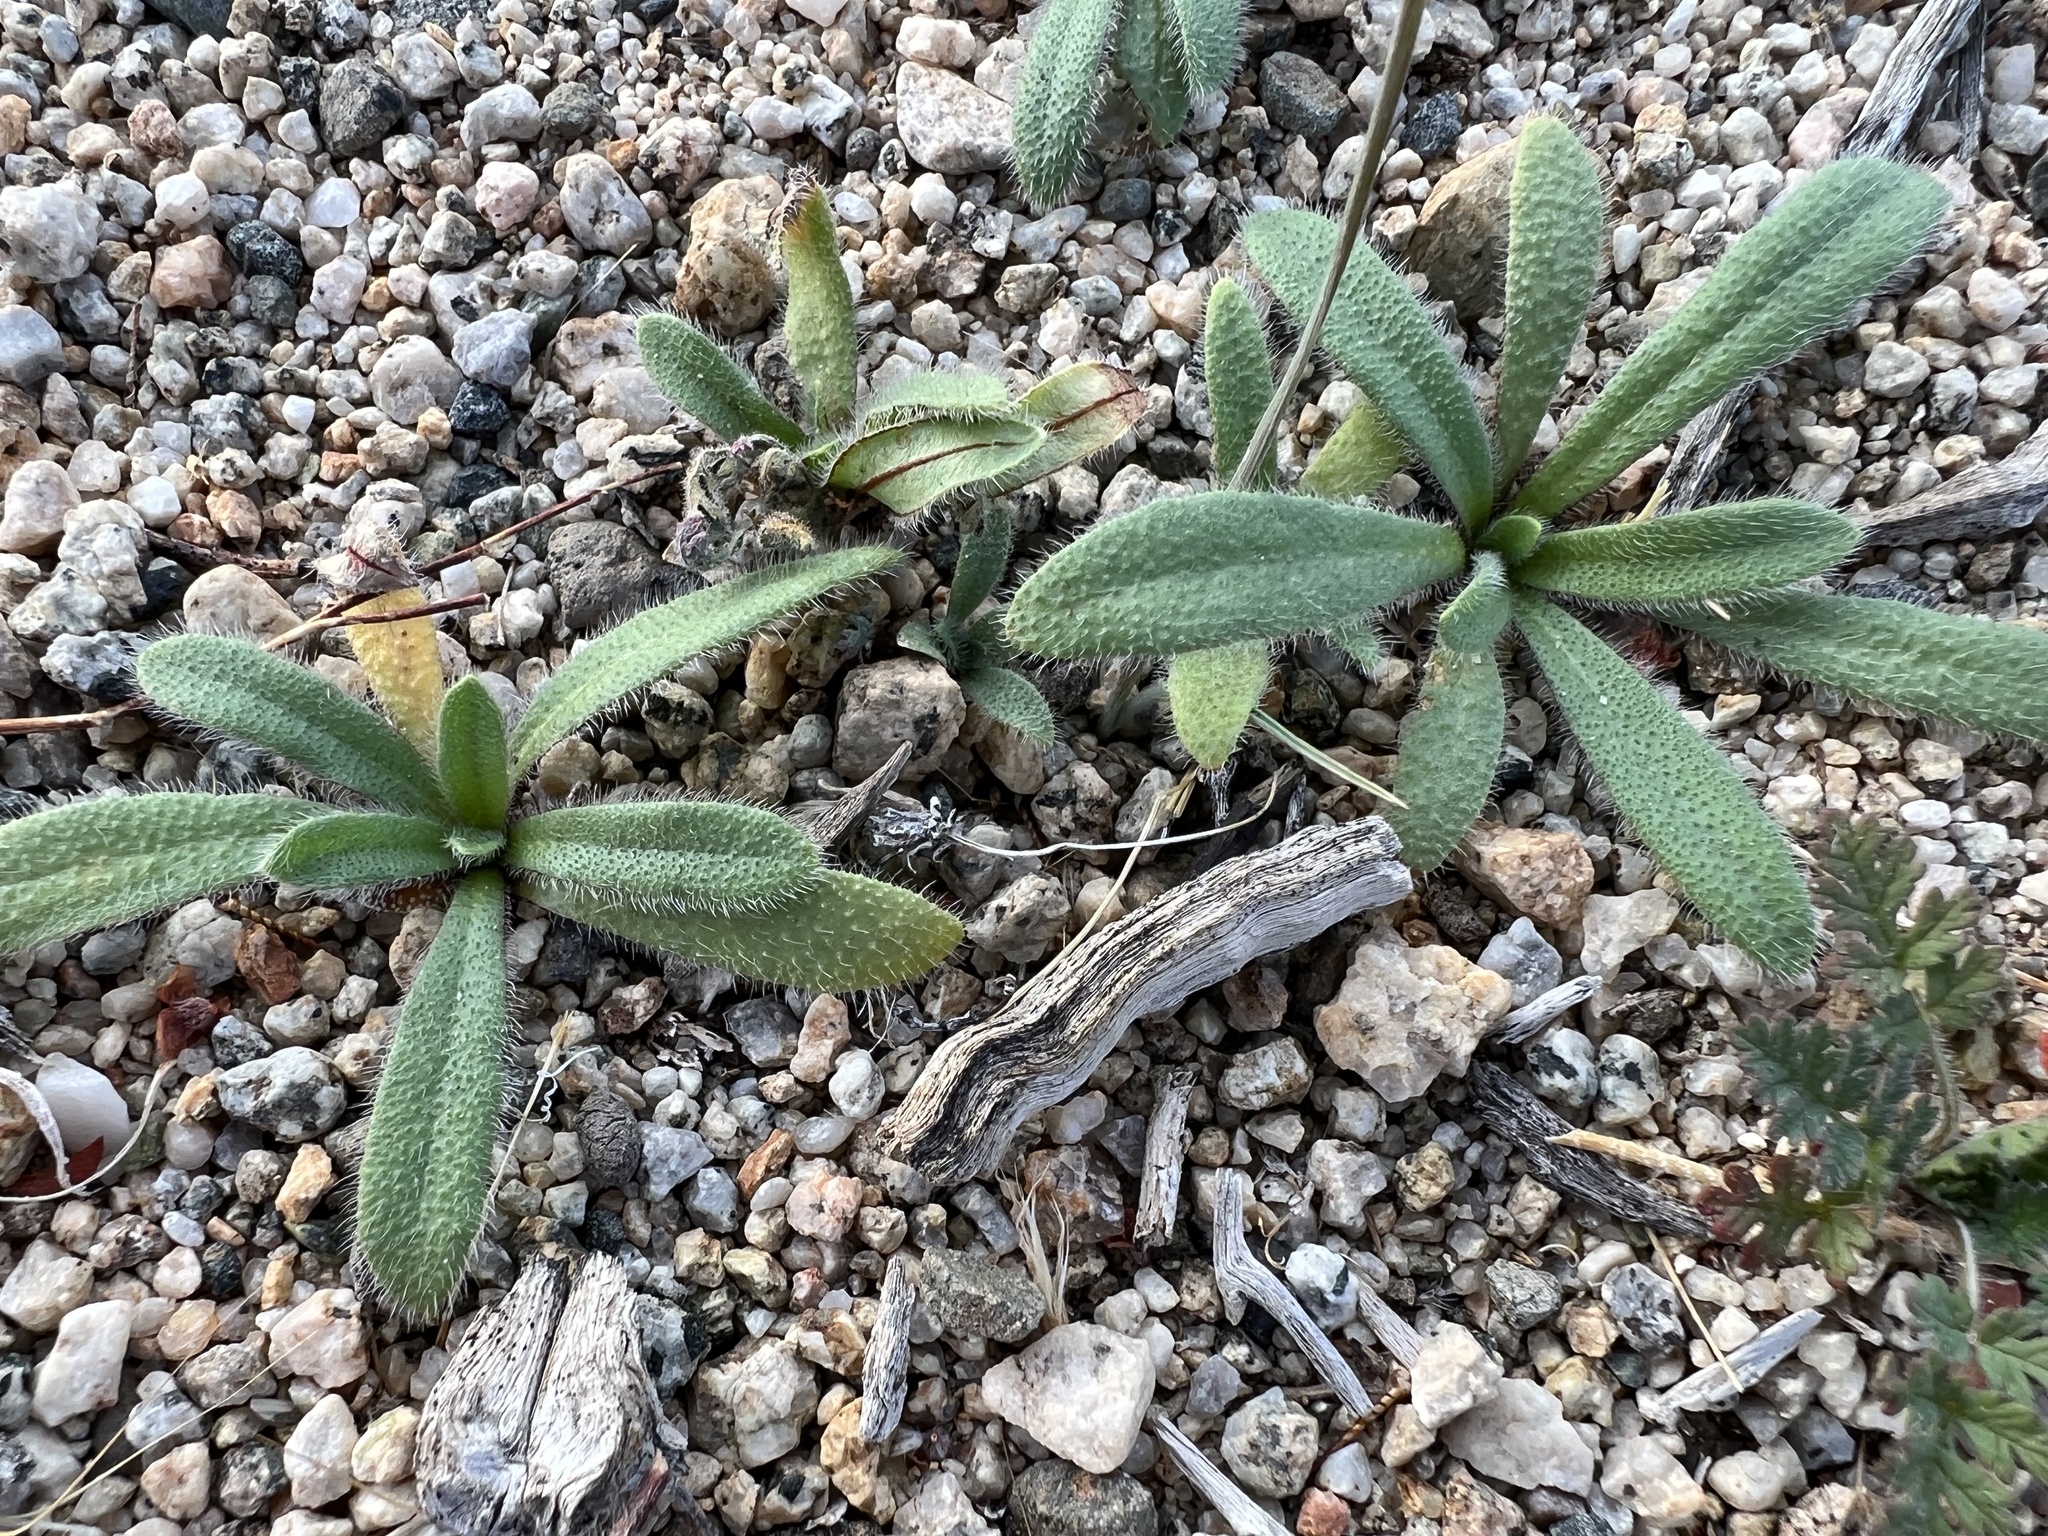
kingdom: Plantae
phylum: Tracheophyta
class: Magnoliopsida
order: Boraginales
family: Boraginaceae
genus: Plagiobothrys
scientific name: Plagiobothrys arizonicus
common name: Arizona popcorn-flower
